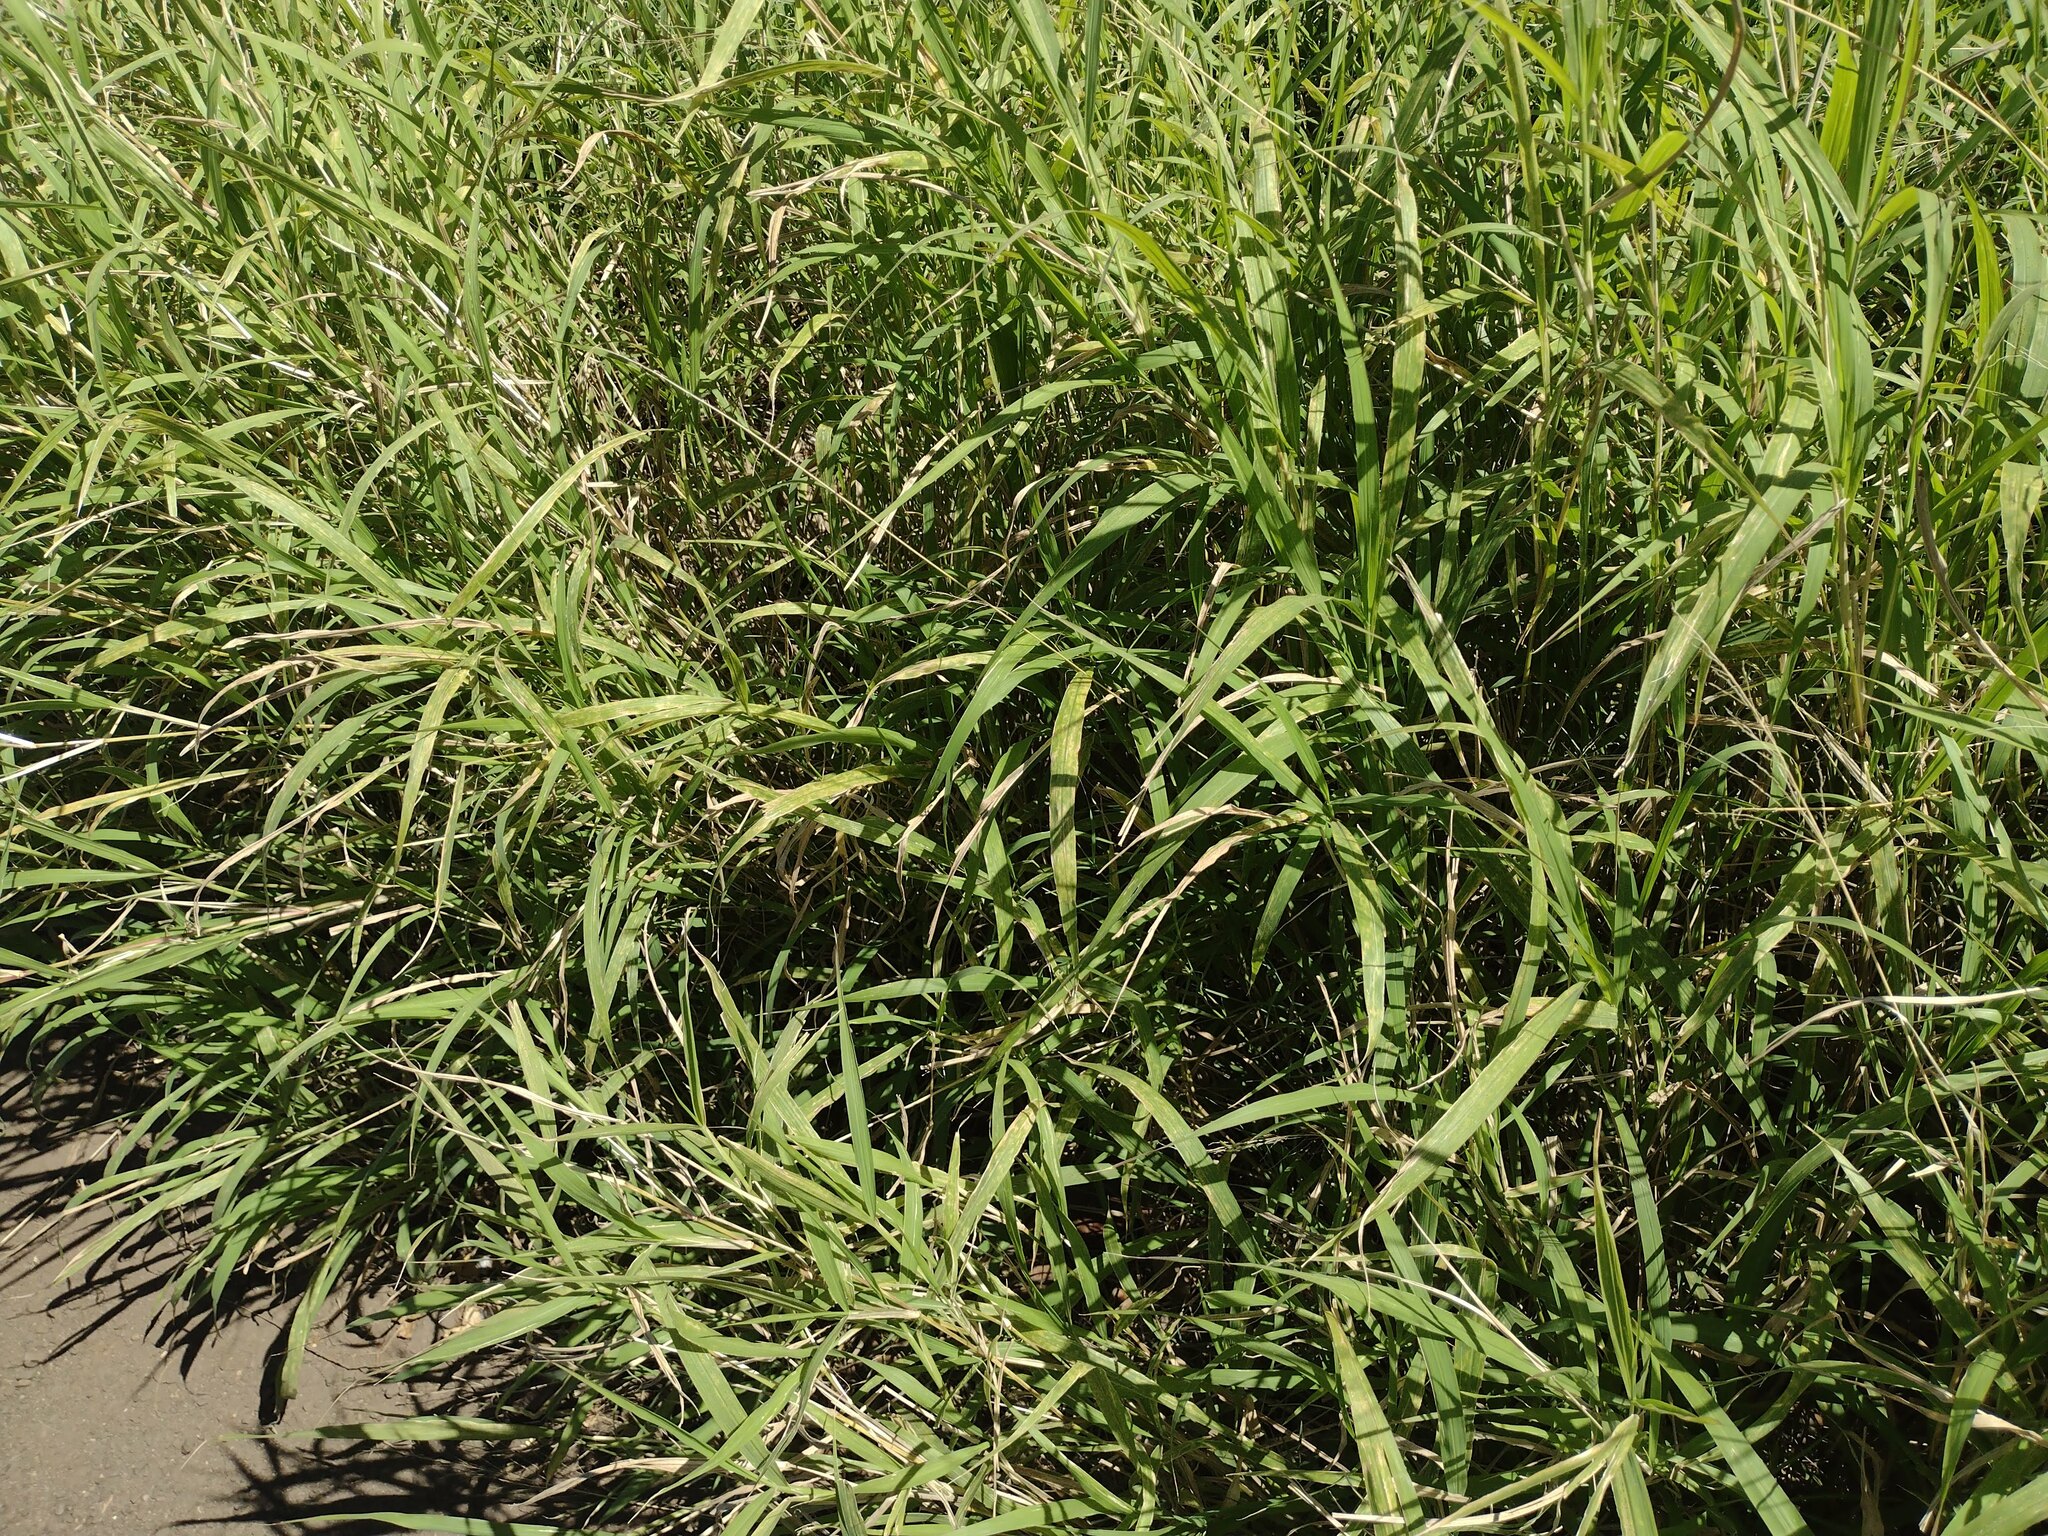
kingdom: Plantae
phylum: Tracheophyta
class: Liliopsida
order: Poales
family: Poaceae
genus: Megathyrsus
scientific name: Megathyrsus maximus
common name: Guineagrass
